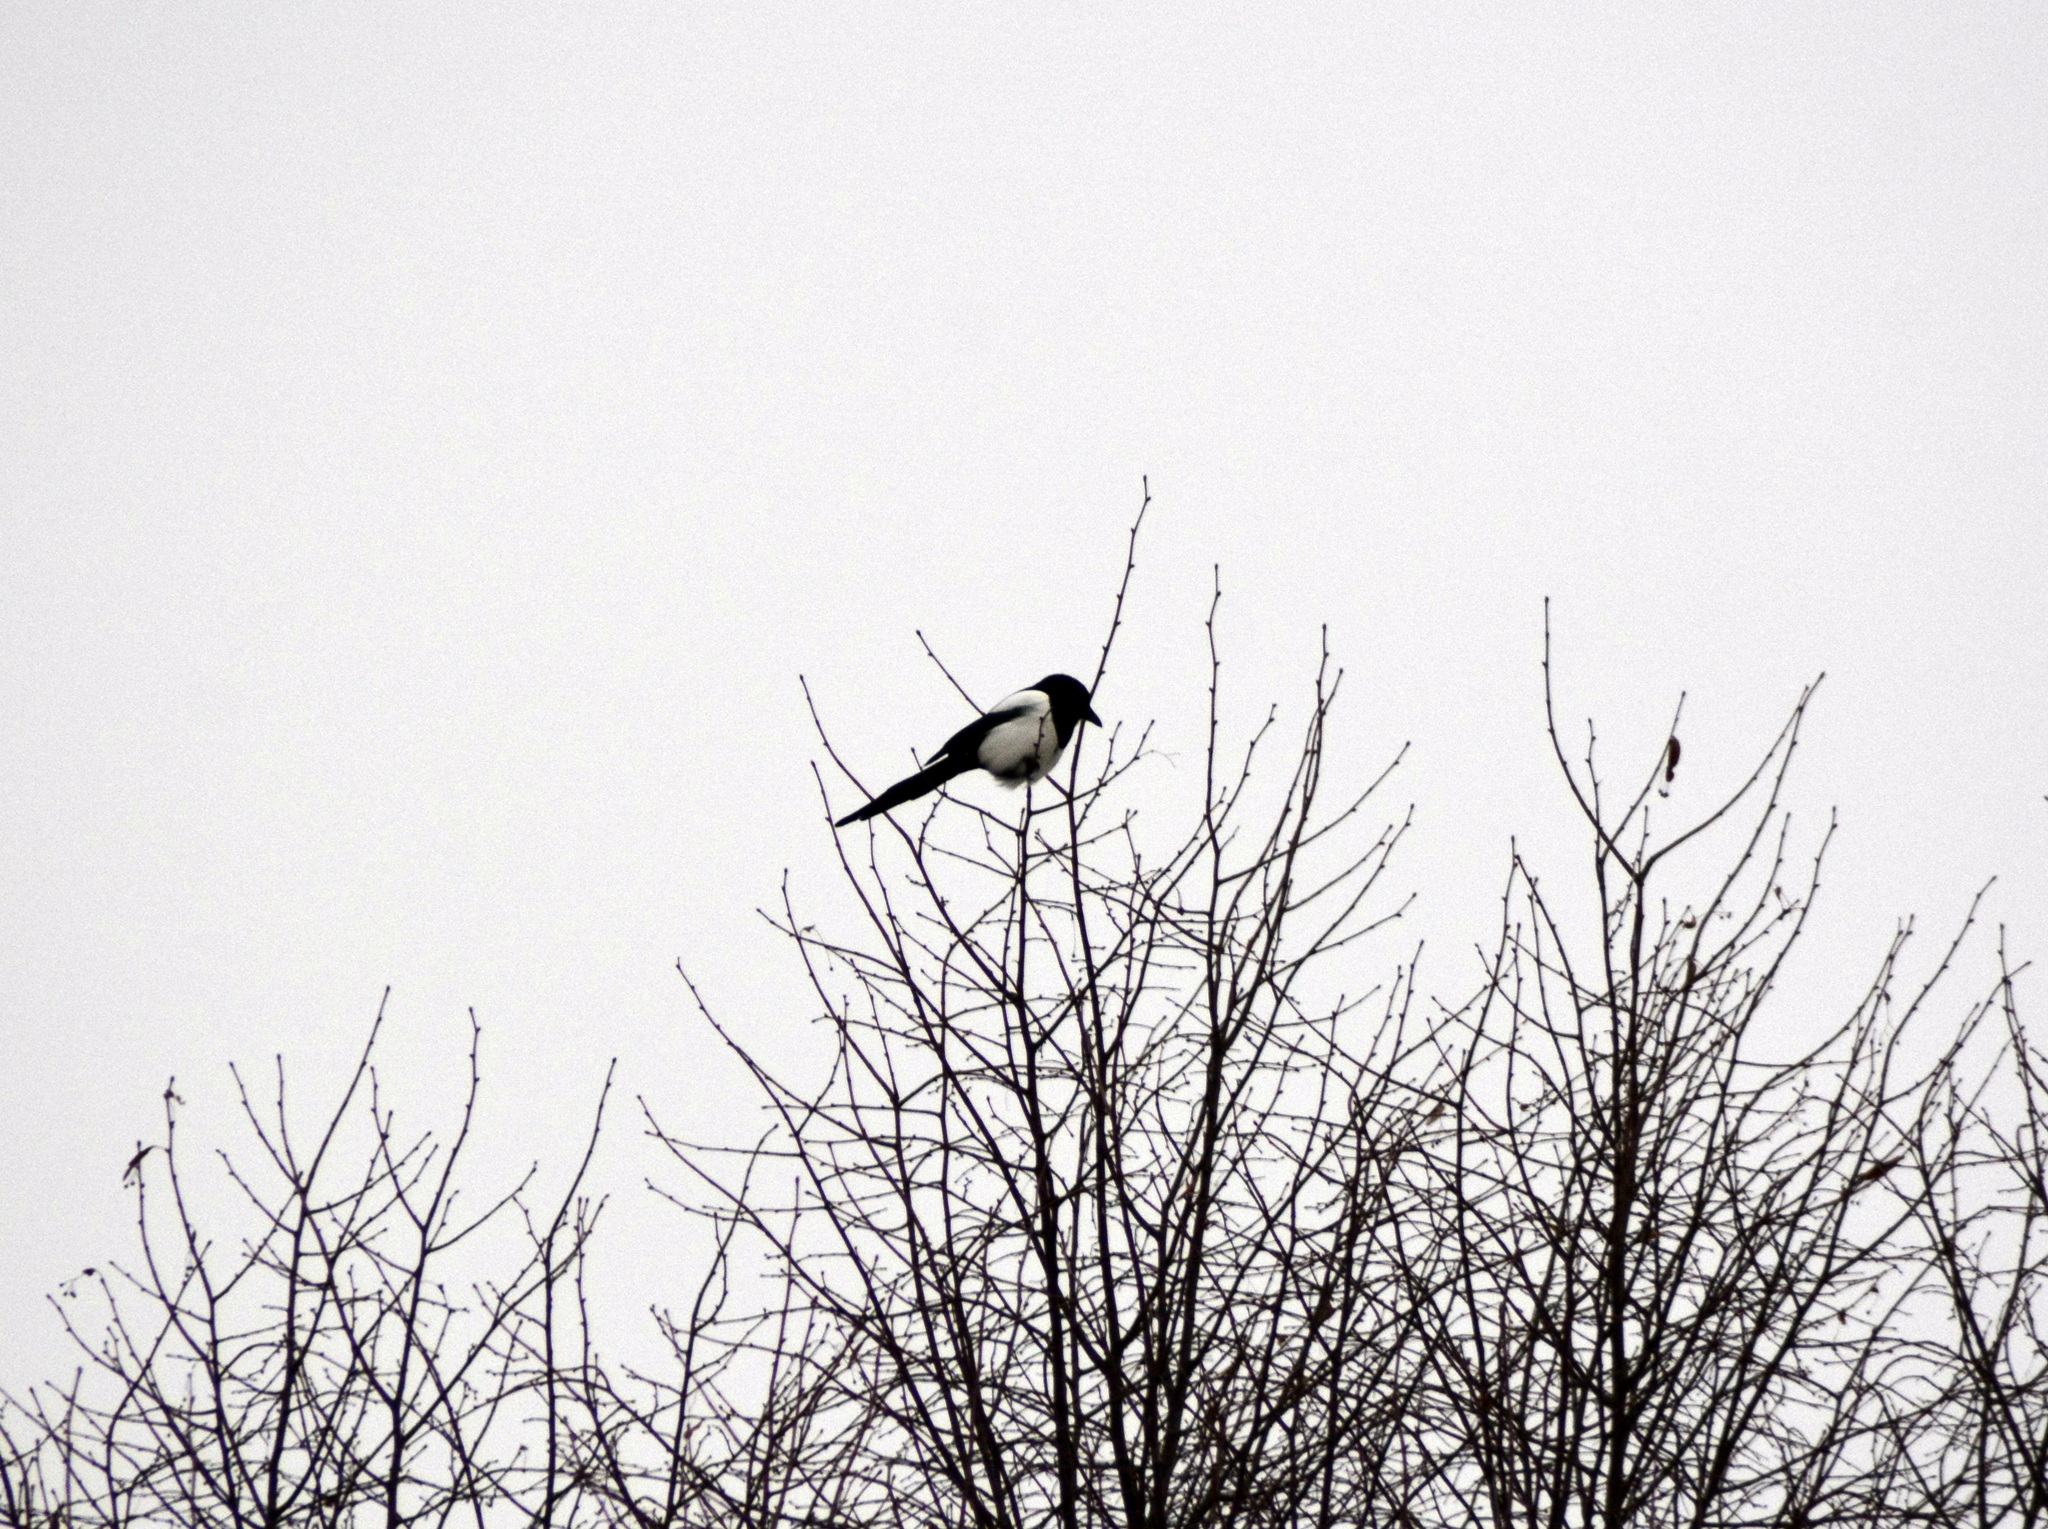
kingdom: Animalia
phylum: Chordata
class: Aves
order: Passeriformes
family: Corvidae
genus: Pica
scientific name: Pica pica
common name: Eurasian magpie
